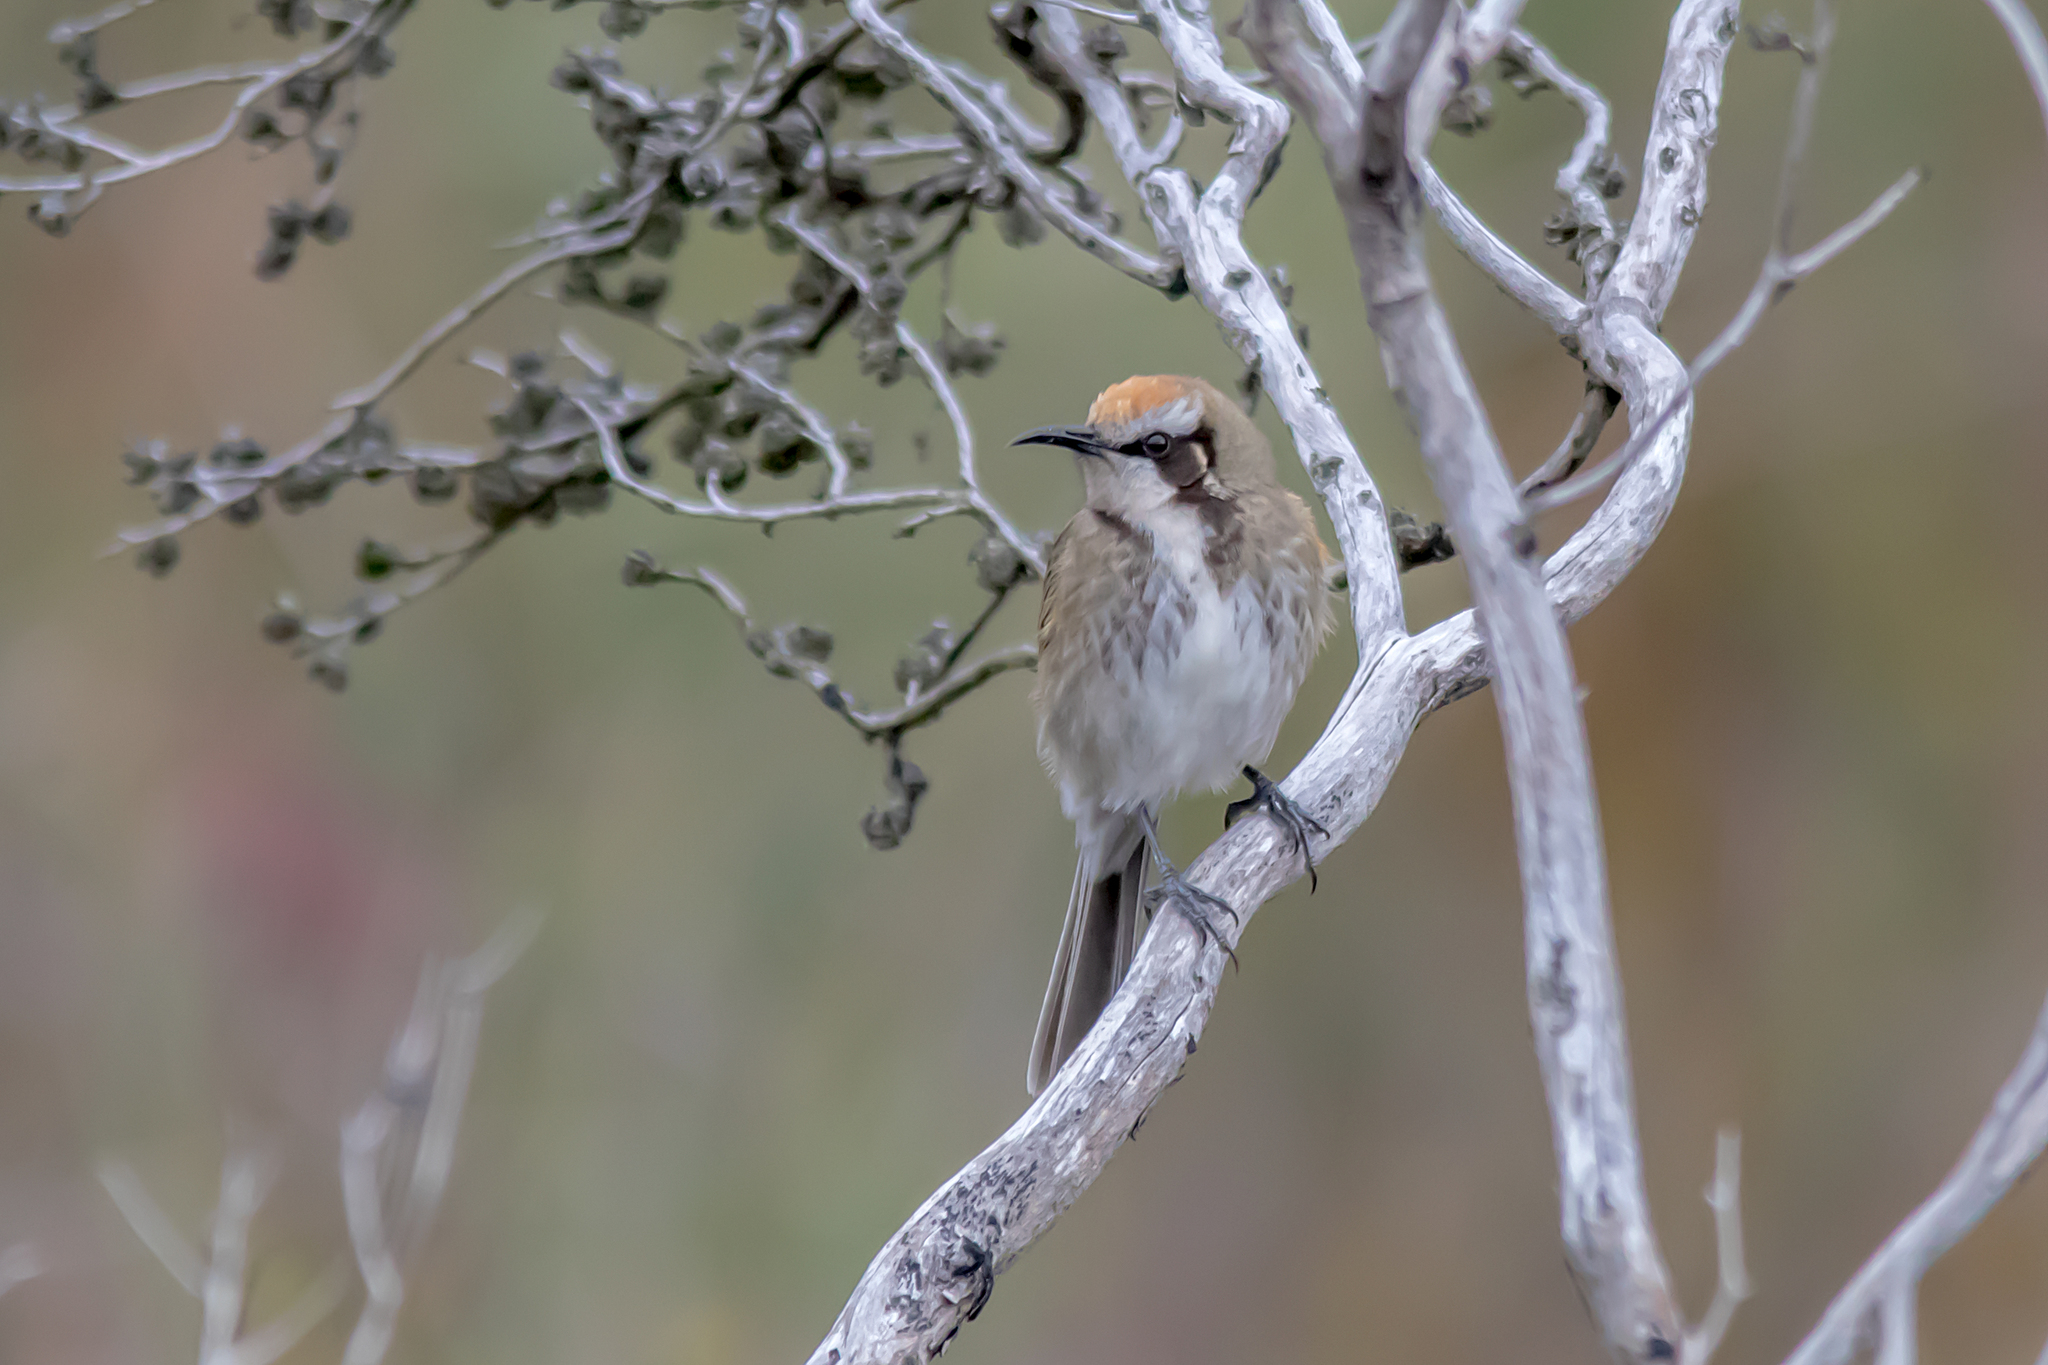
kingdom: Animalia
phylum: Chordata
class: Aves
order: Passeriformes
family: Meliphagidae
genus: Gliciphila
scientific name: Gliciphila melanops
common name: Tawny-crowned honeyeater
